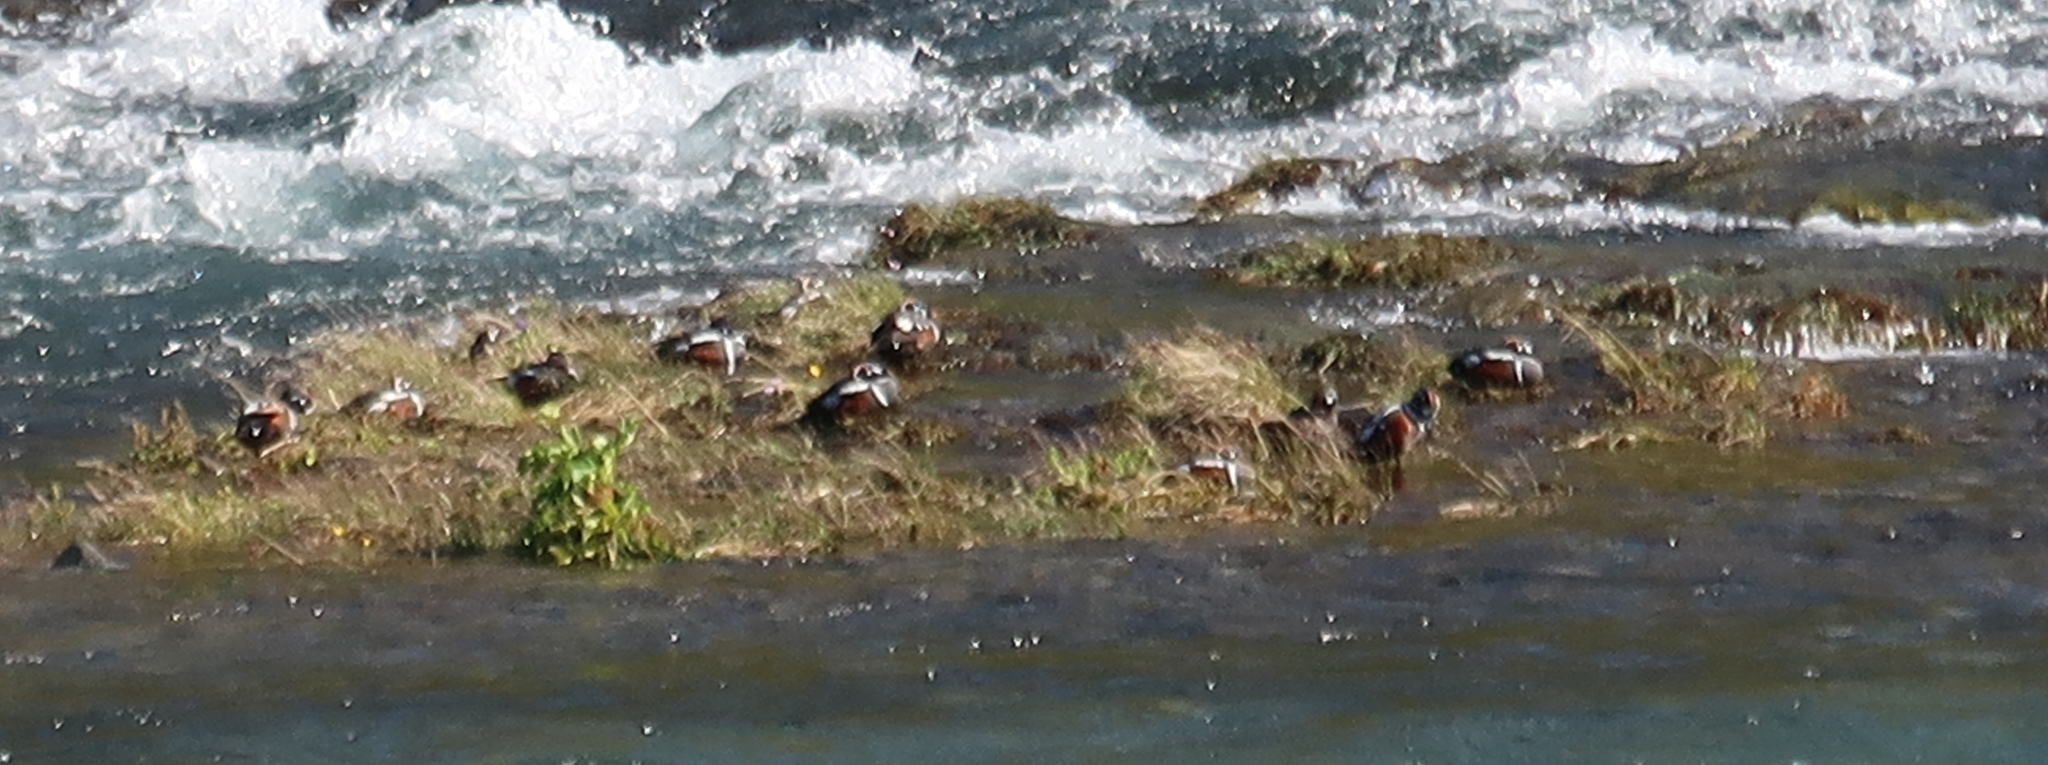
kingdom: Animalia
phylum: Chordata
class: Aves
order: Anseriformes
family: Anatidae
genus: Histrionicus
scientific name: Histrionicus histrionicus
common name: Harlequin duck
